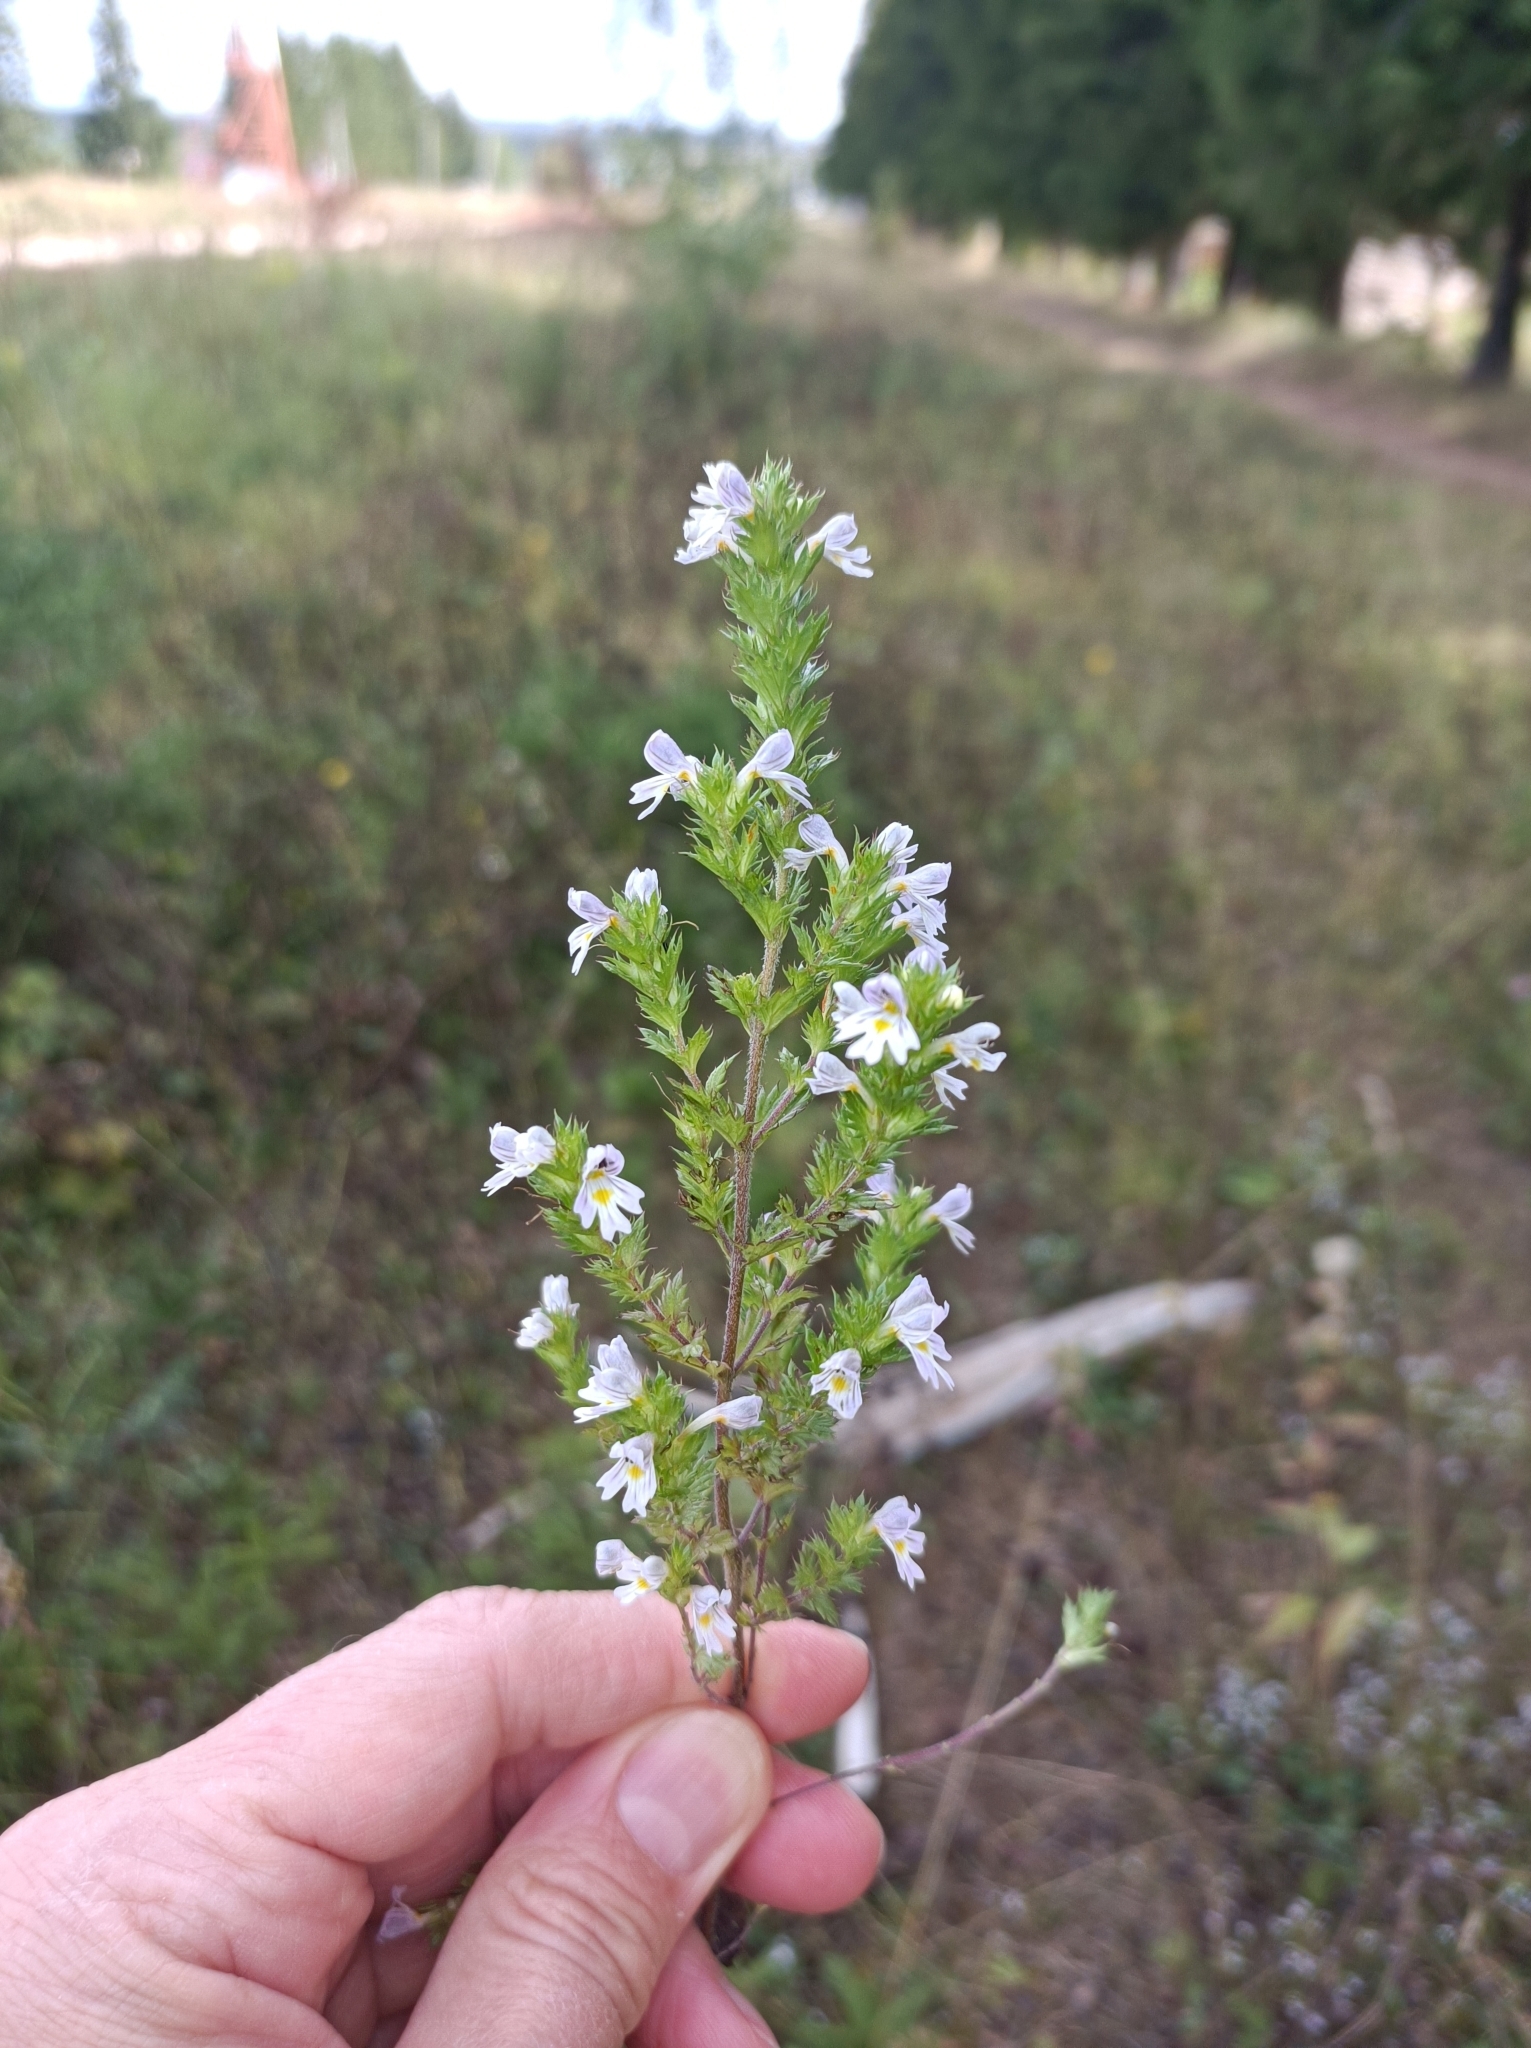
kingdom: Plantae
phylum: Tracheophyta
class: Magnoliopsida
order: Lamiales
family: Orobanchaceae
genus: Euphrasia
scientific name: Euphrasia pectinata
